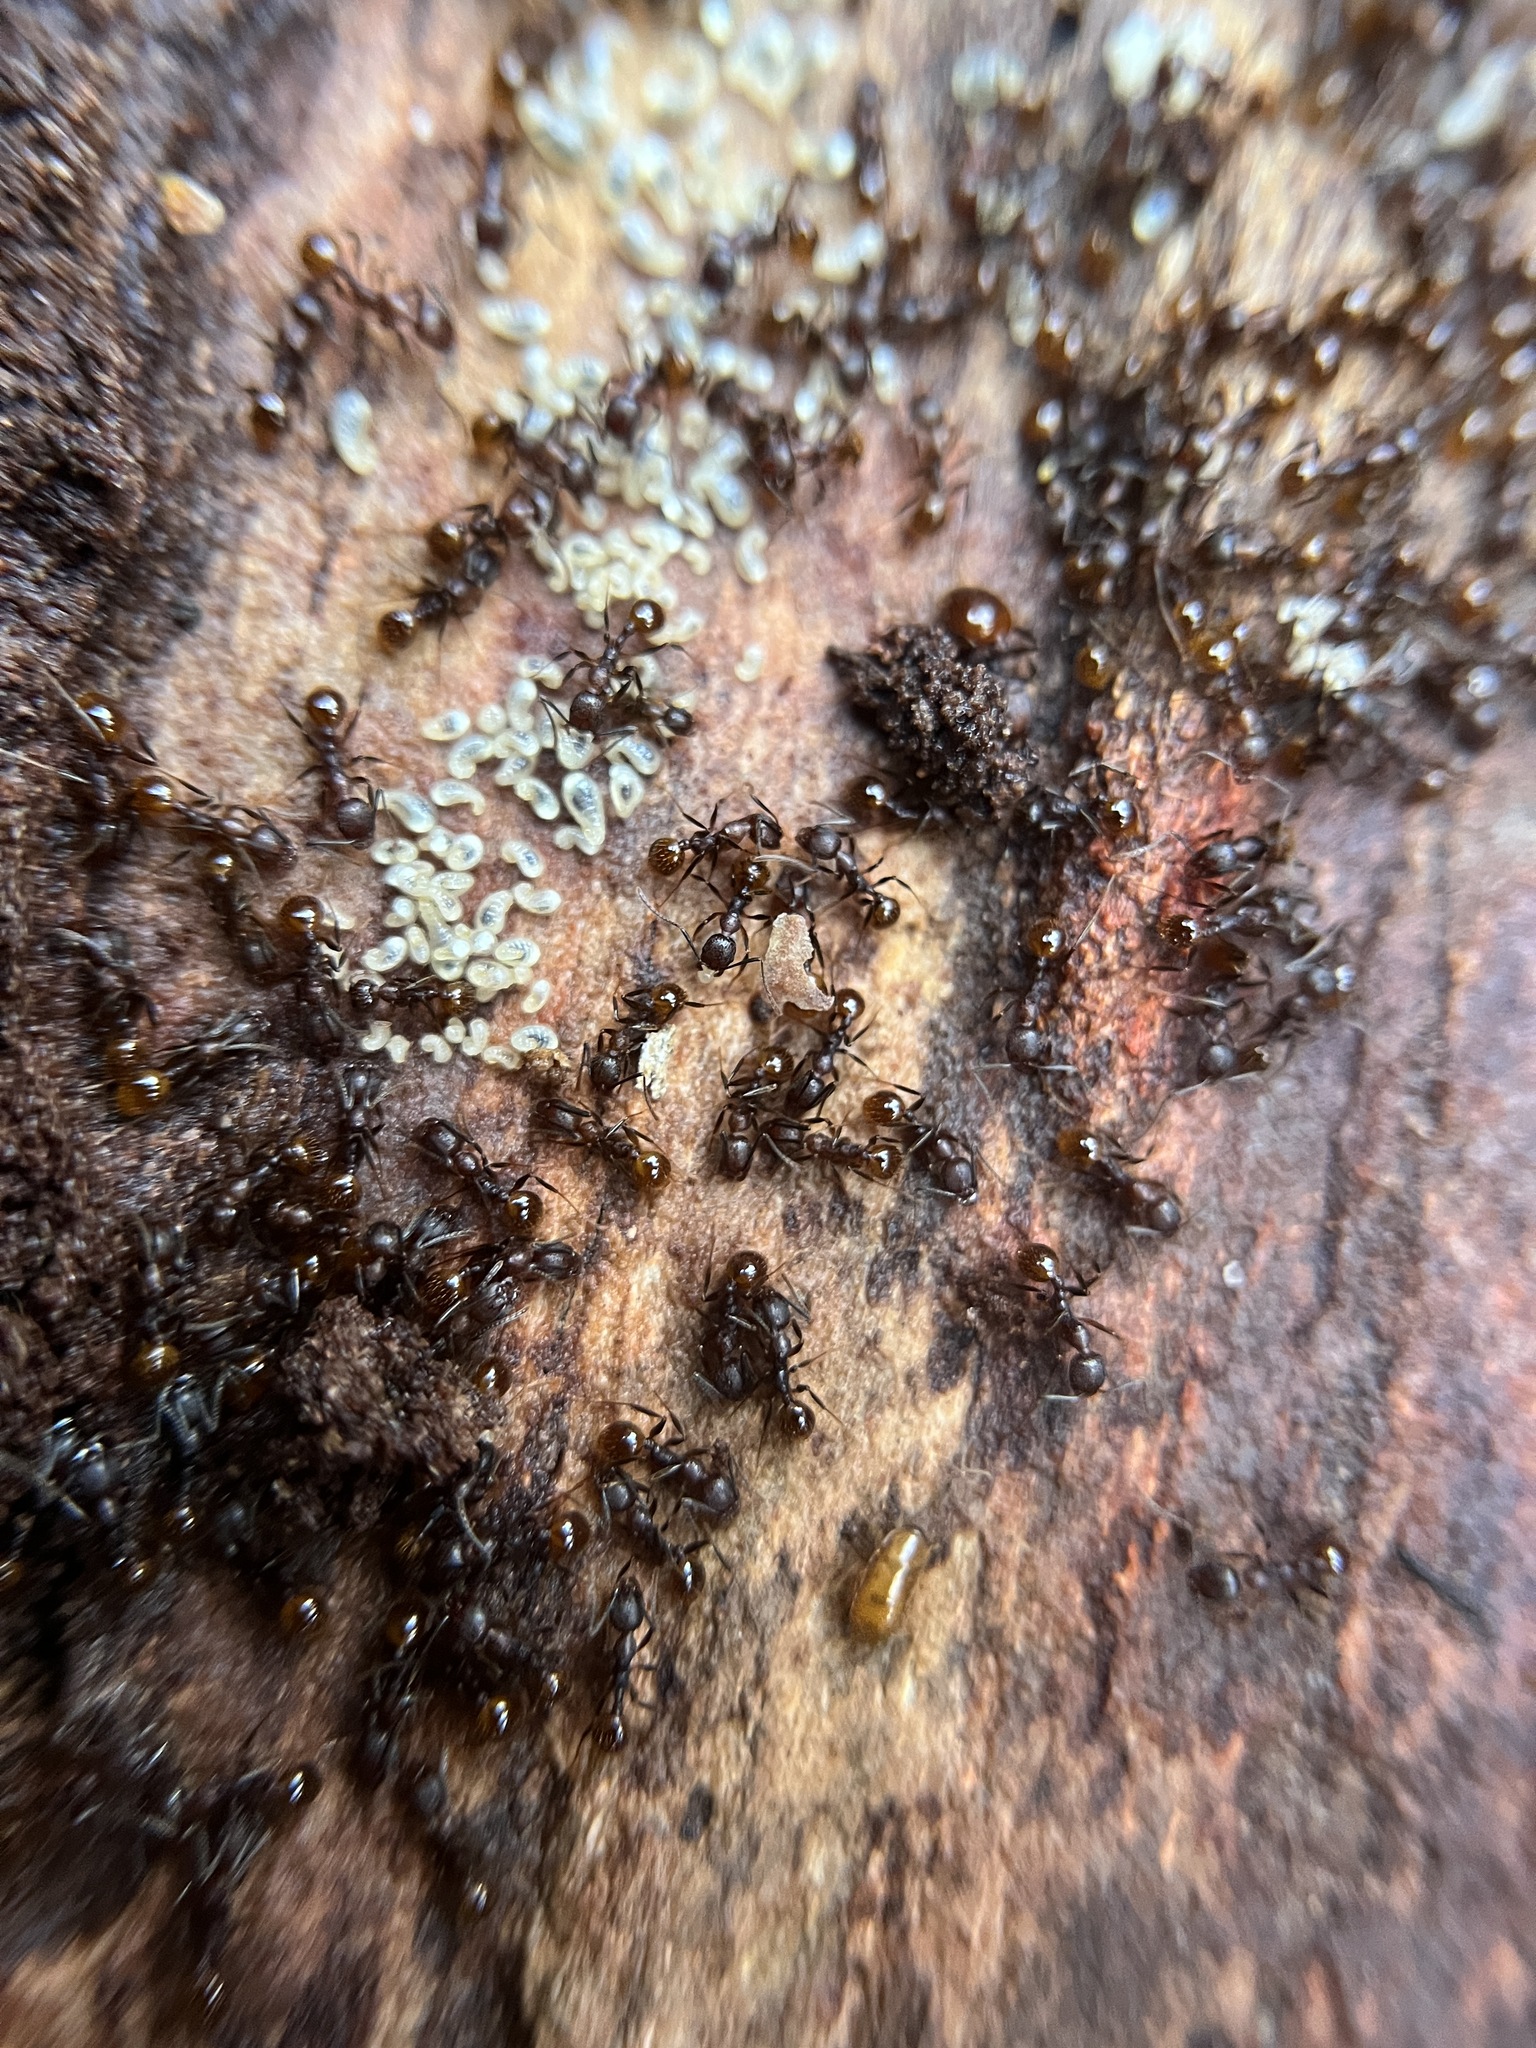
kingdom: Animalia
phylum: Arthropoda
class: Insecta
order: Hymenoptera
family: Formicidae
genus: Aphaenogaster
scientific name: Aphaenogaster fulva
